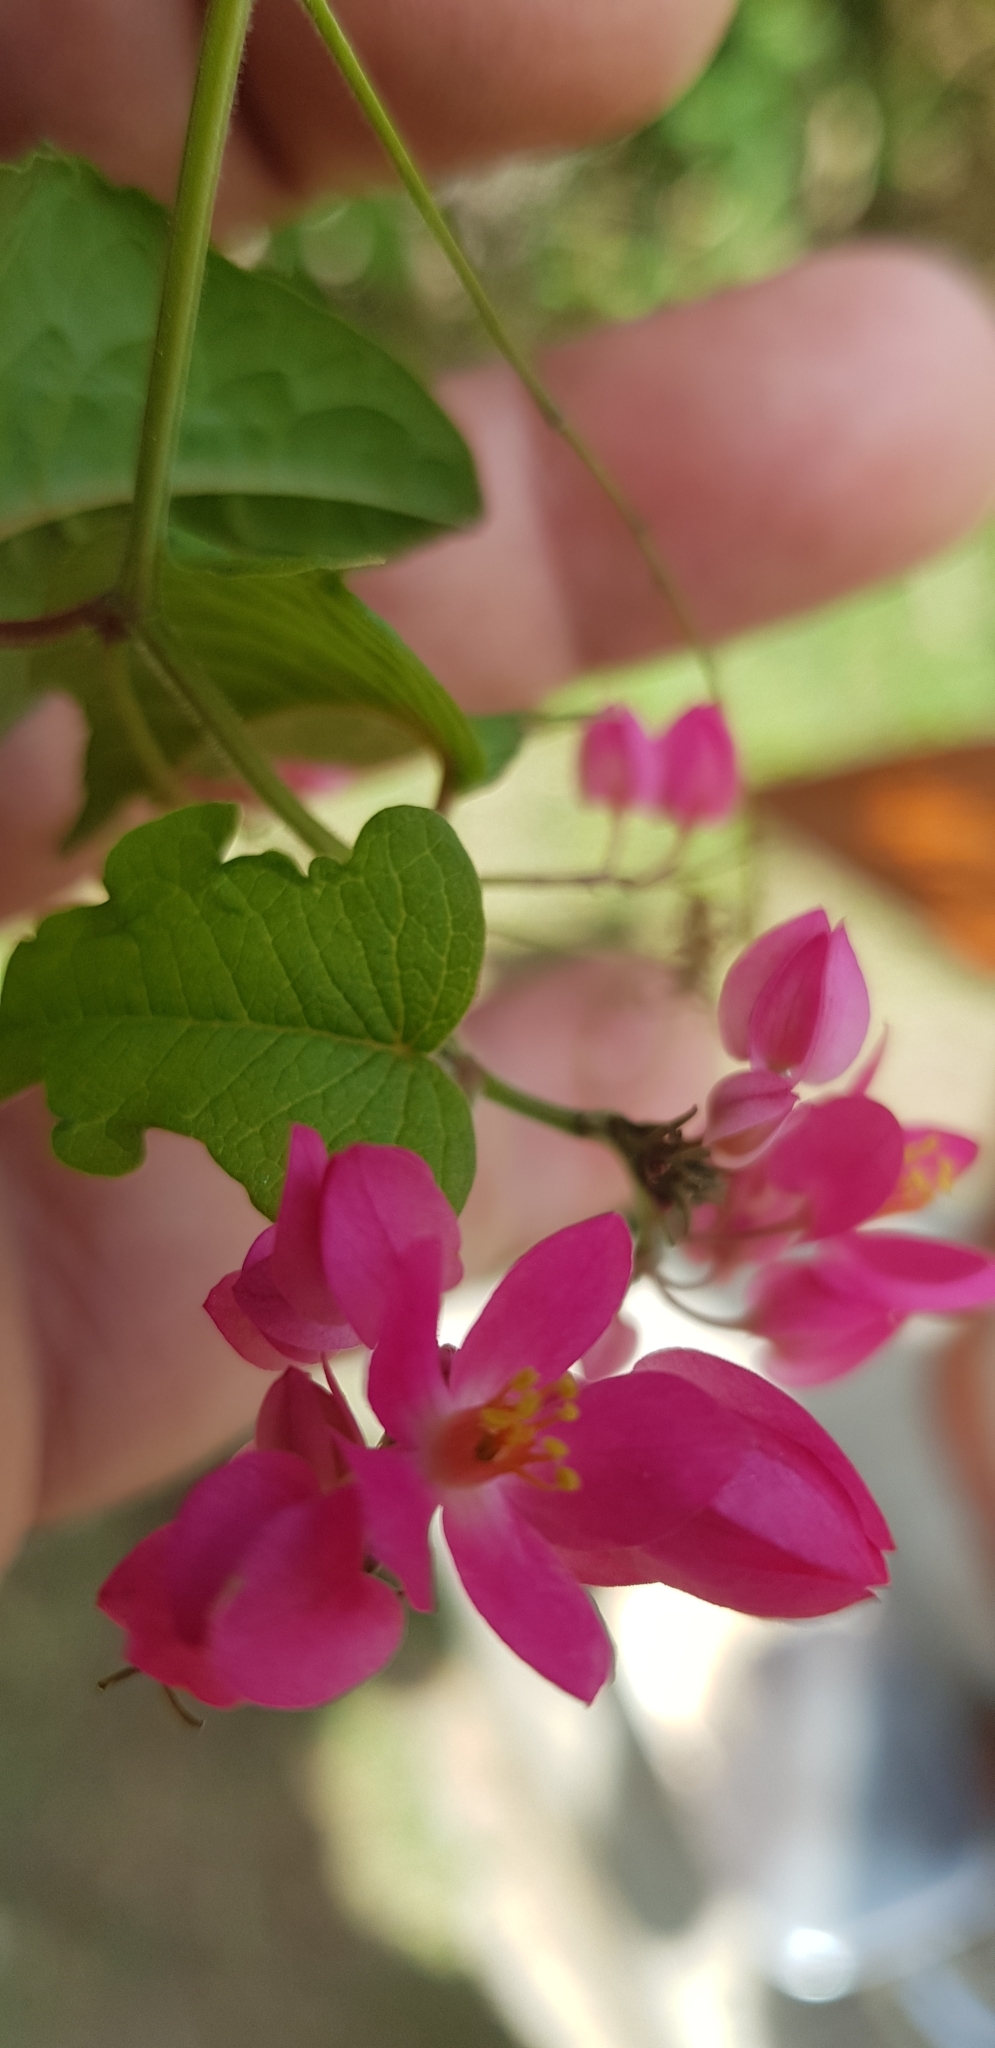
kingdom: Plantae
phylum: Tracheophyta
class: Magnoliopsida
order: Caryophyllales
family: Polygonaceae
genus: Antigonon
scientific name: Antigonon leptopus
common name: Coral vine
